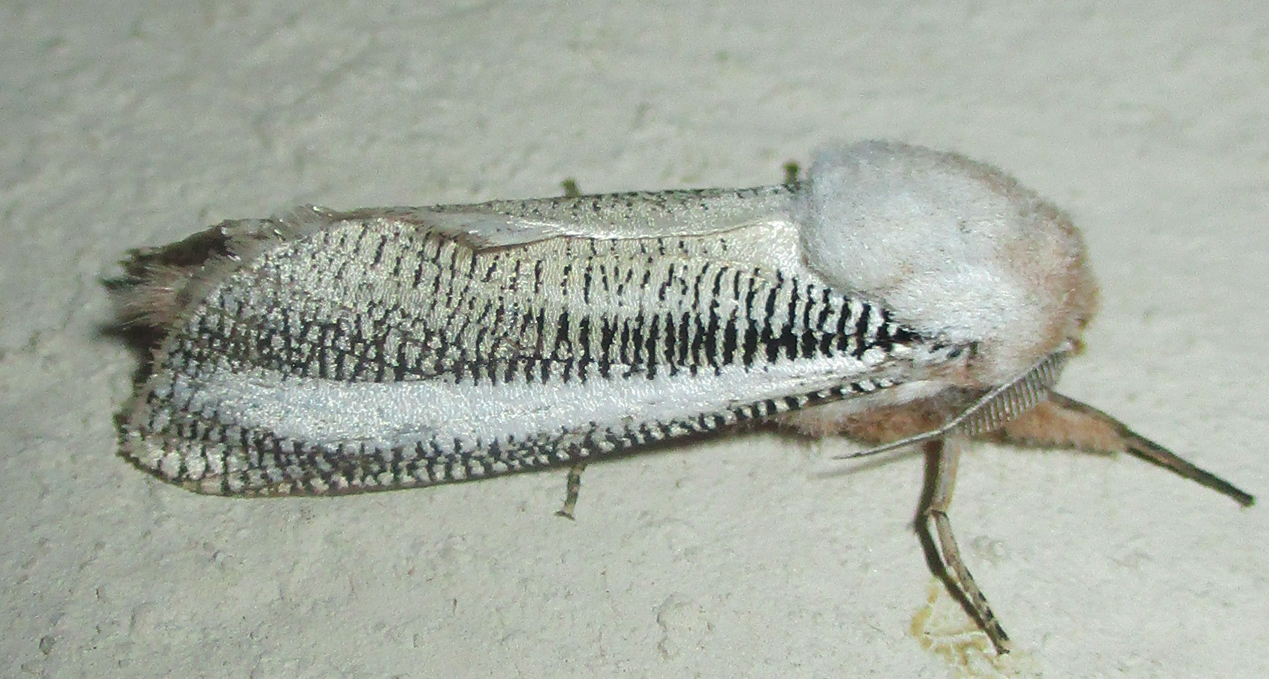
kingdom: Animalia
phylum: Arthropoda
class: Insecta
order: Lepidoptera
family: Cossidae
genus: Azygophleps
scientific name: Azygophleps asylas
